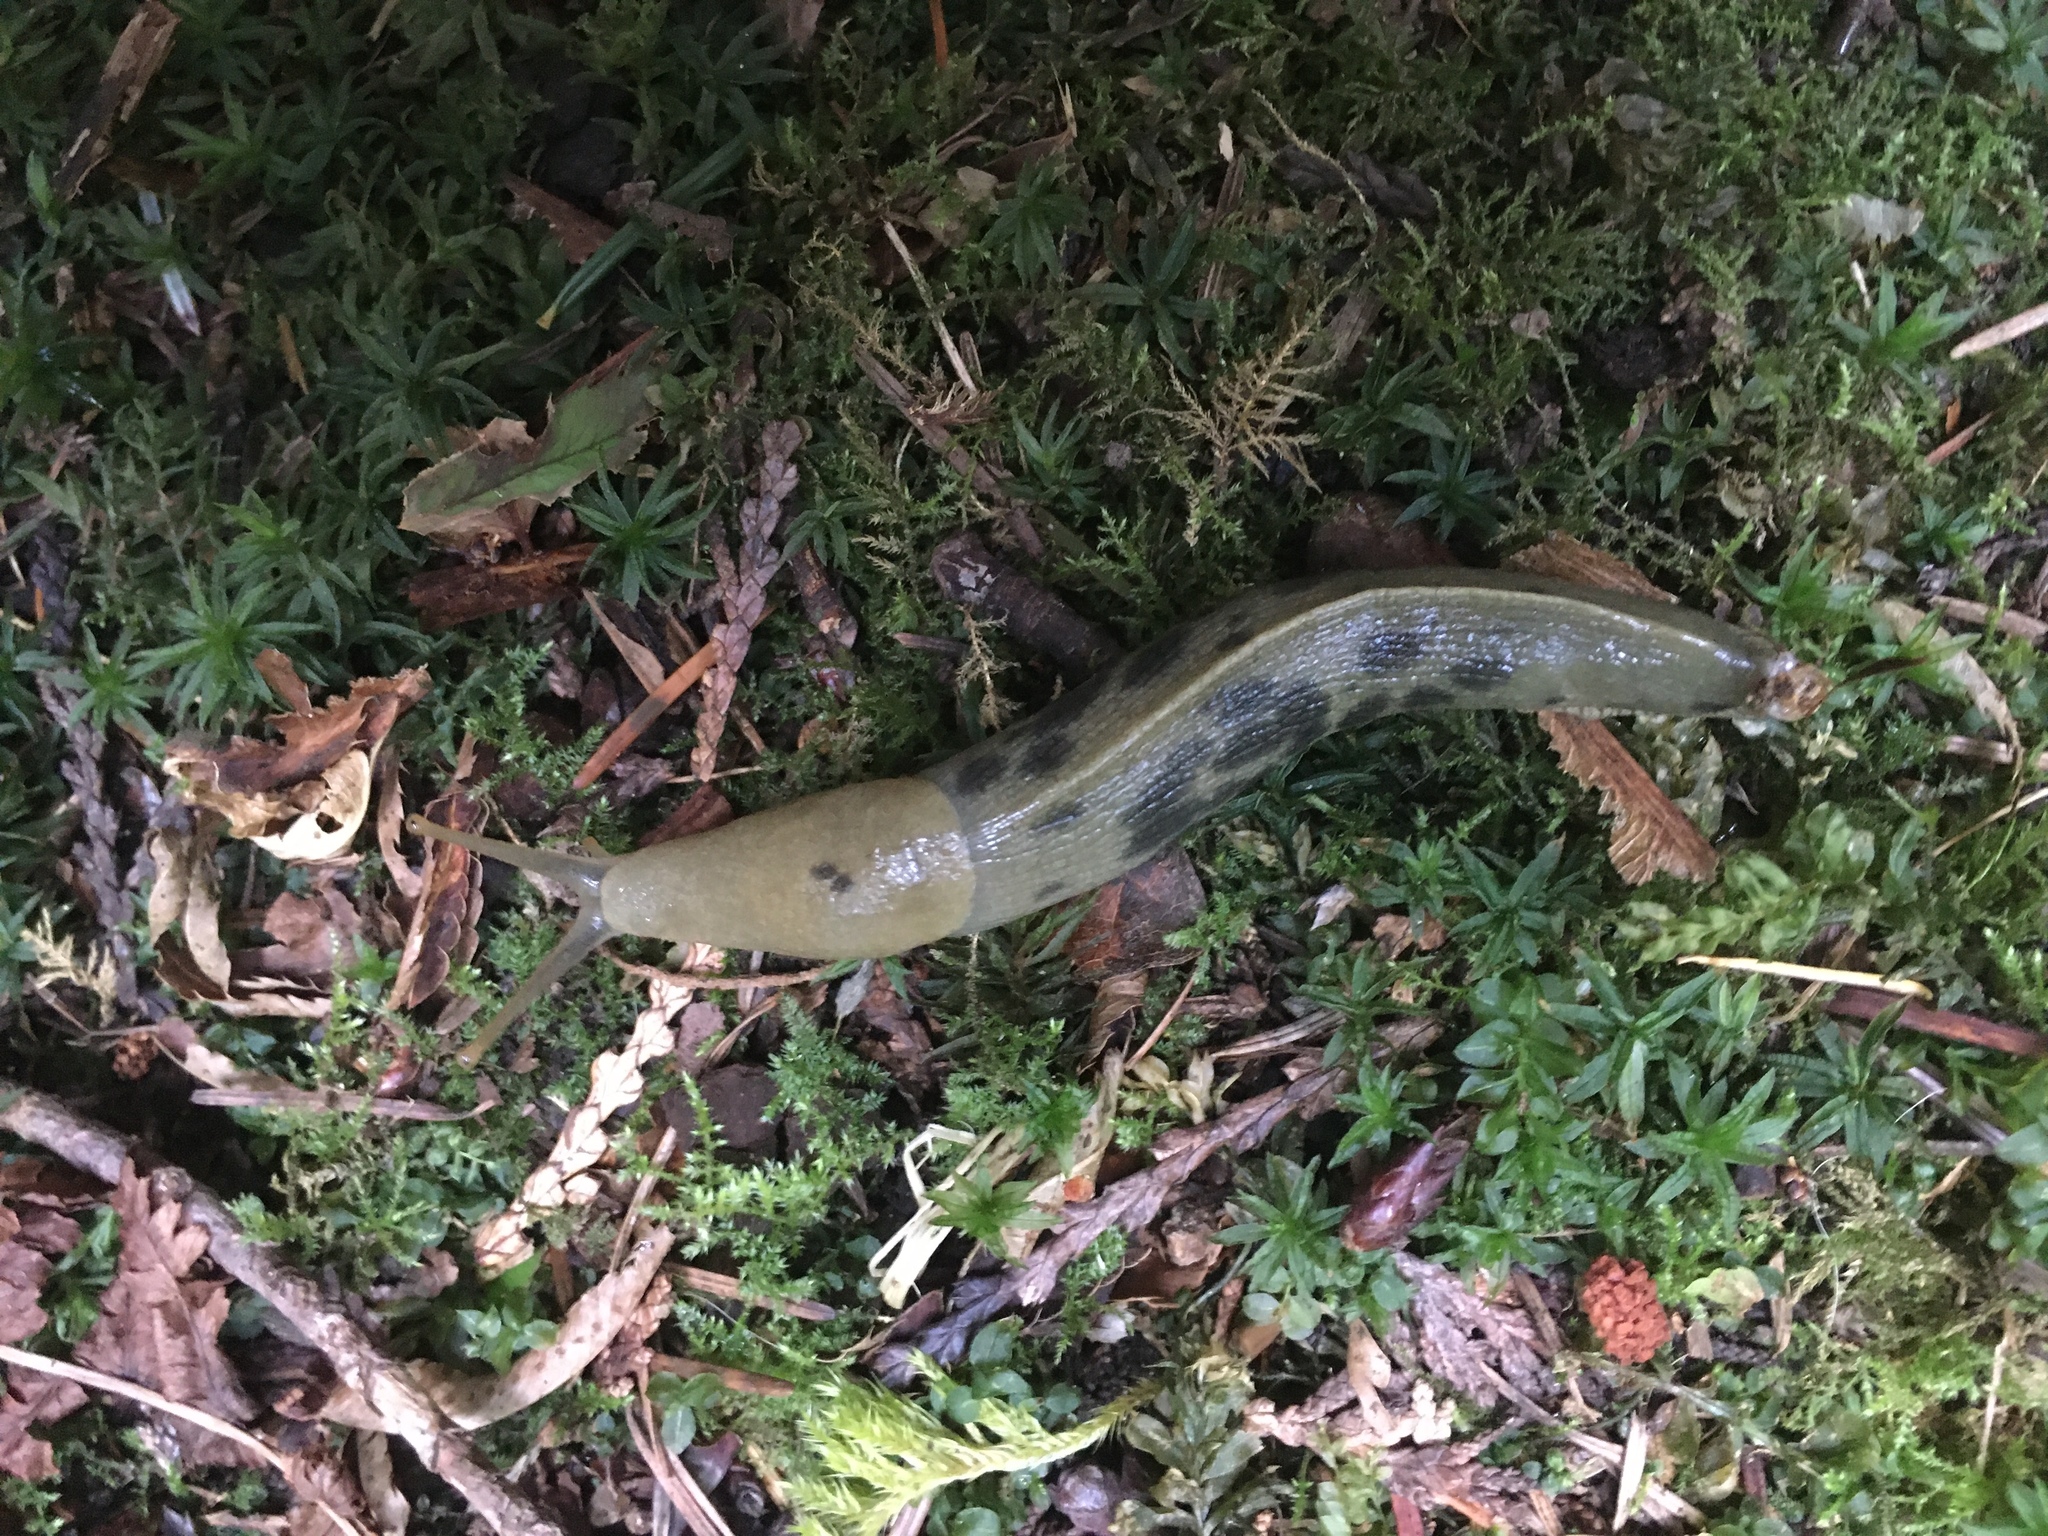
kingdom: Animalia
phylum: Mollusca
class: Gastropoda
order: Stylommatophora
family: Ariolimacidae
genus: Ariolimax
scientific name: Ariolimax columbianus
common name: Pacific banana slug
